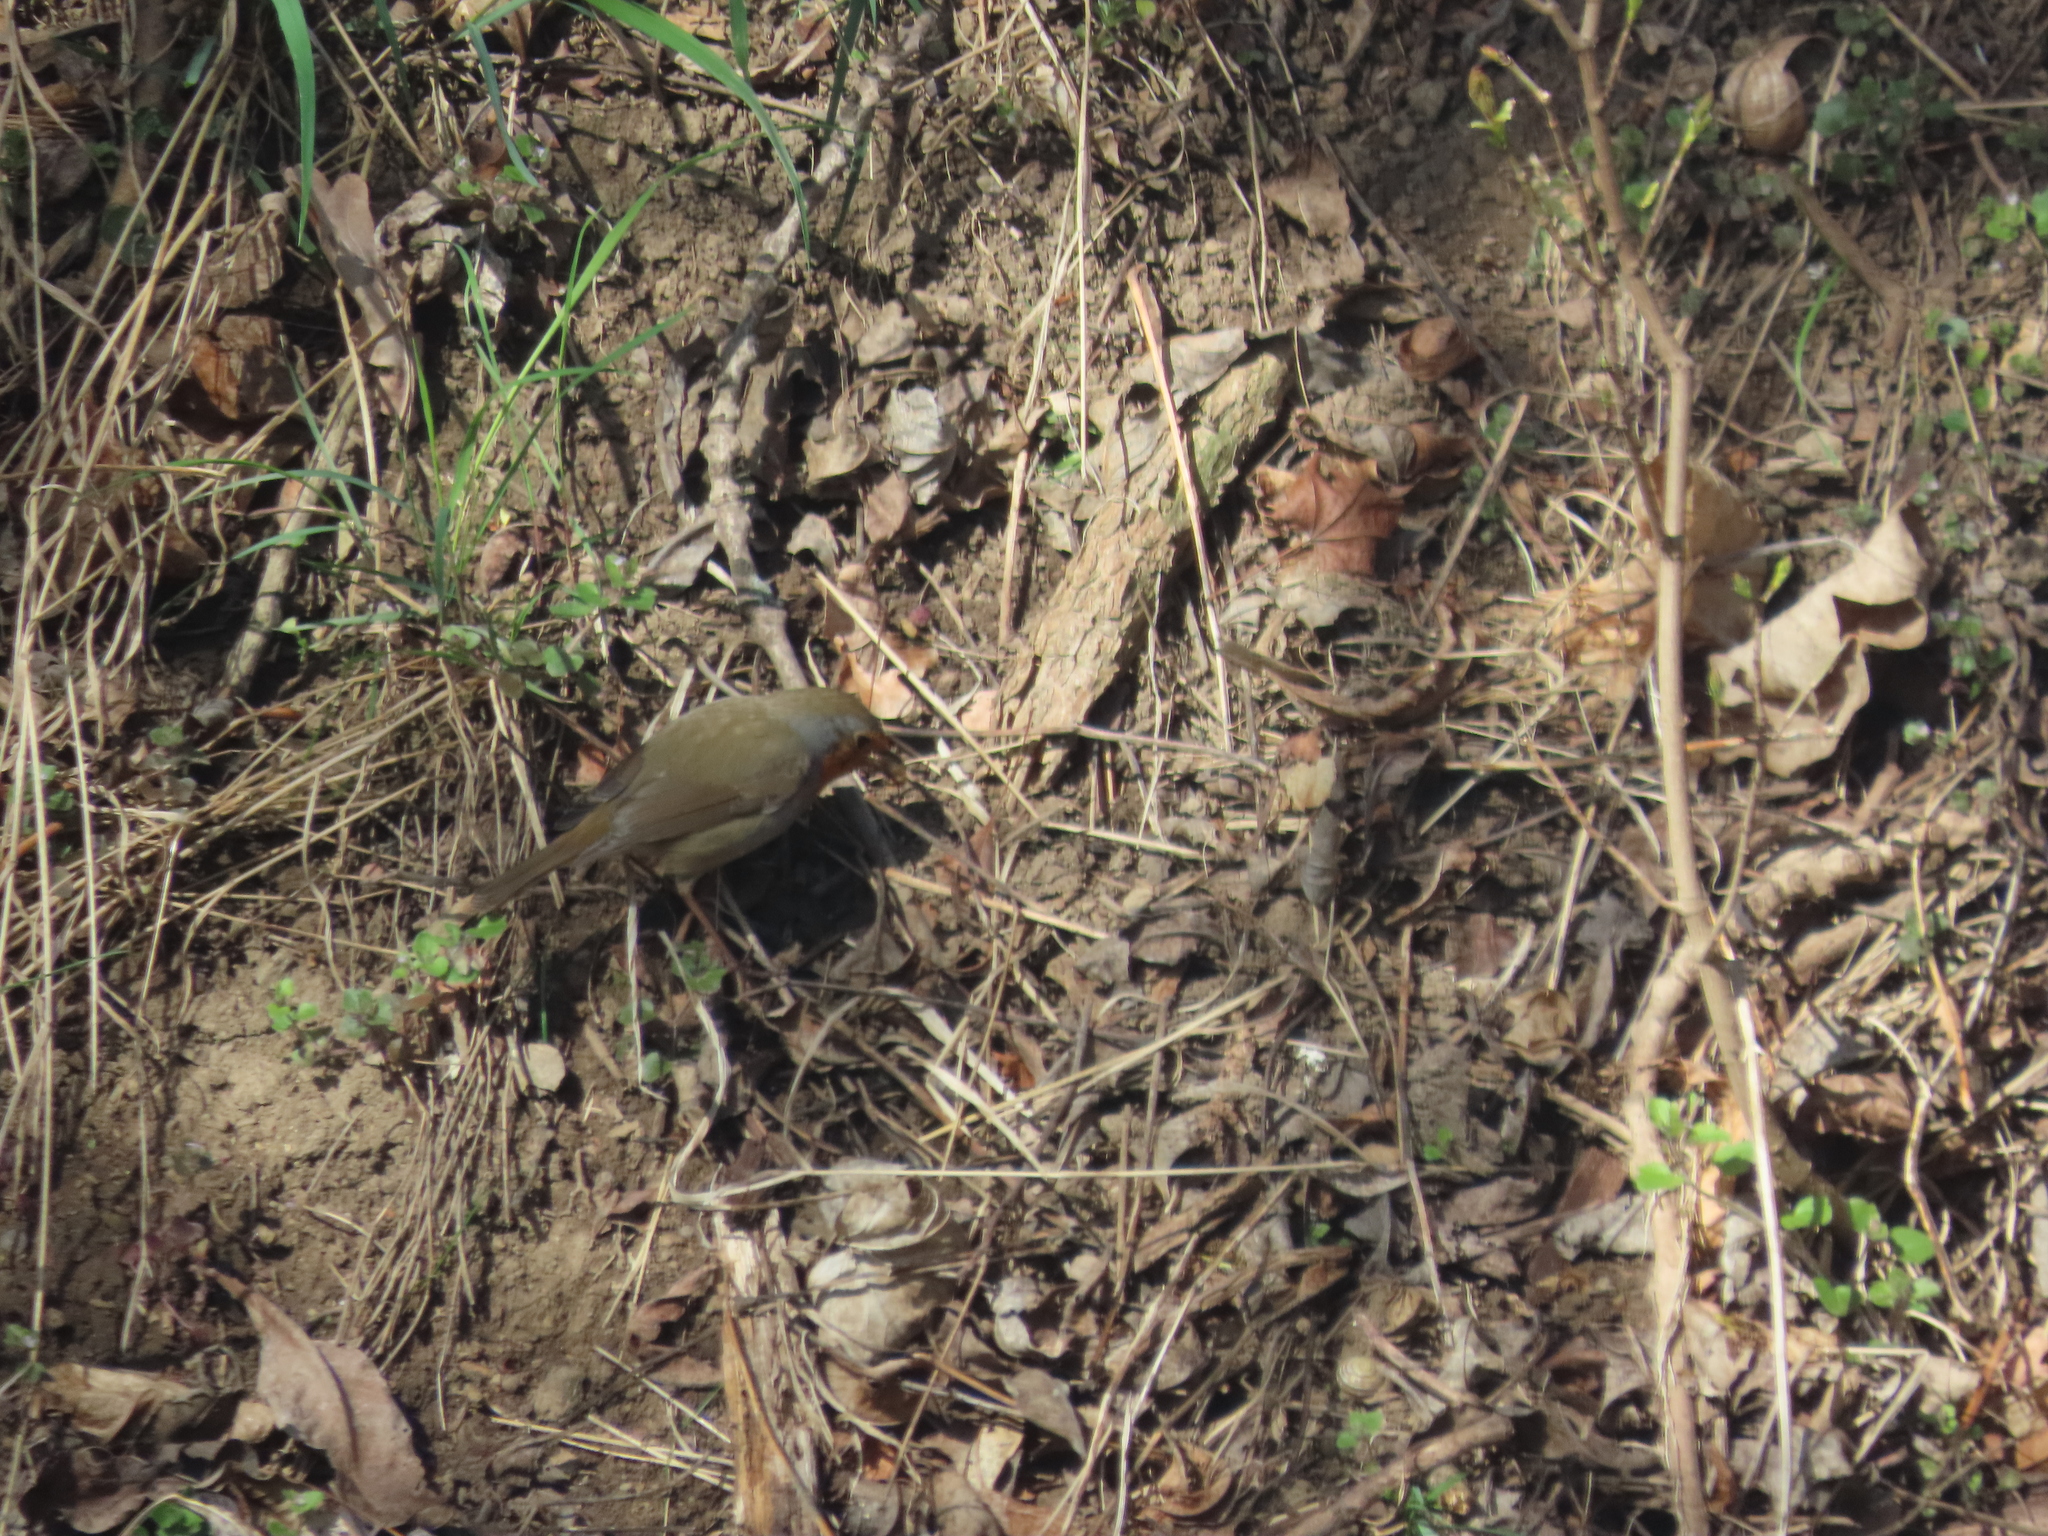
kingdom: Animalia
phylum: Chordata
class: Aves
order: Passeriformes
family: Muscicapidae
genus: Erithacus
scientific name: Erithacus rubecula
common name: European robin
